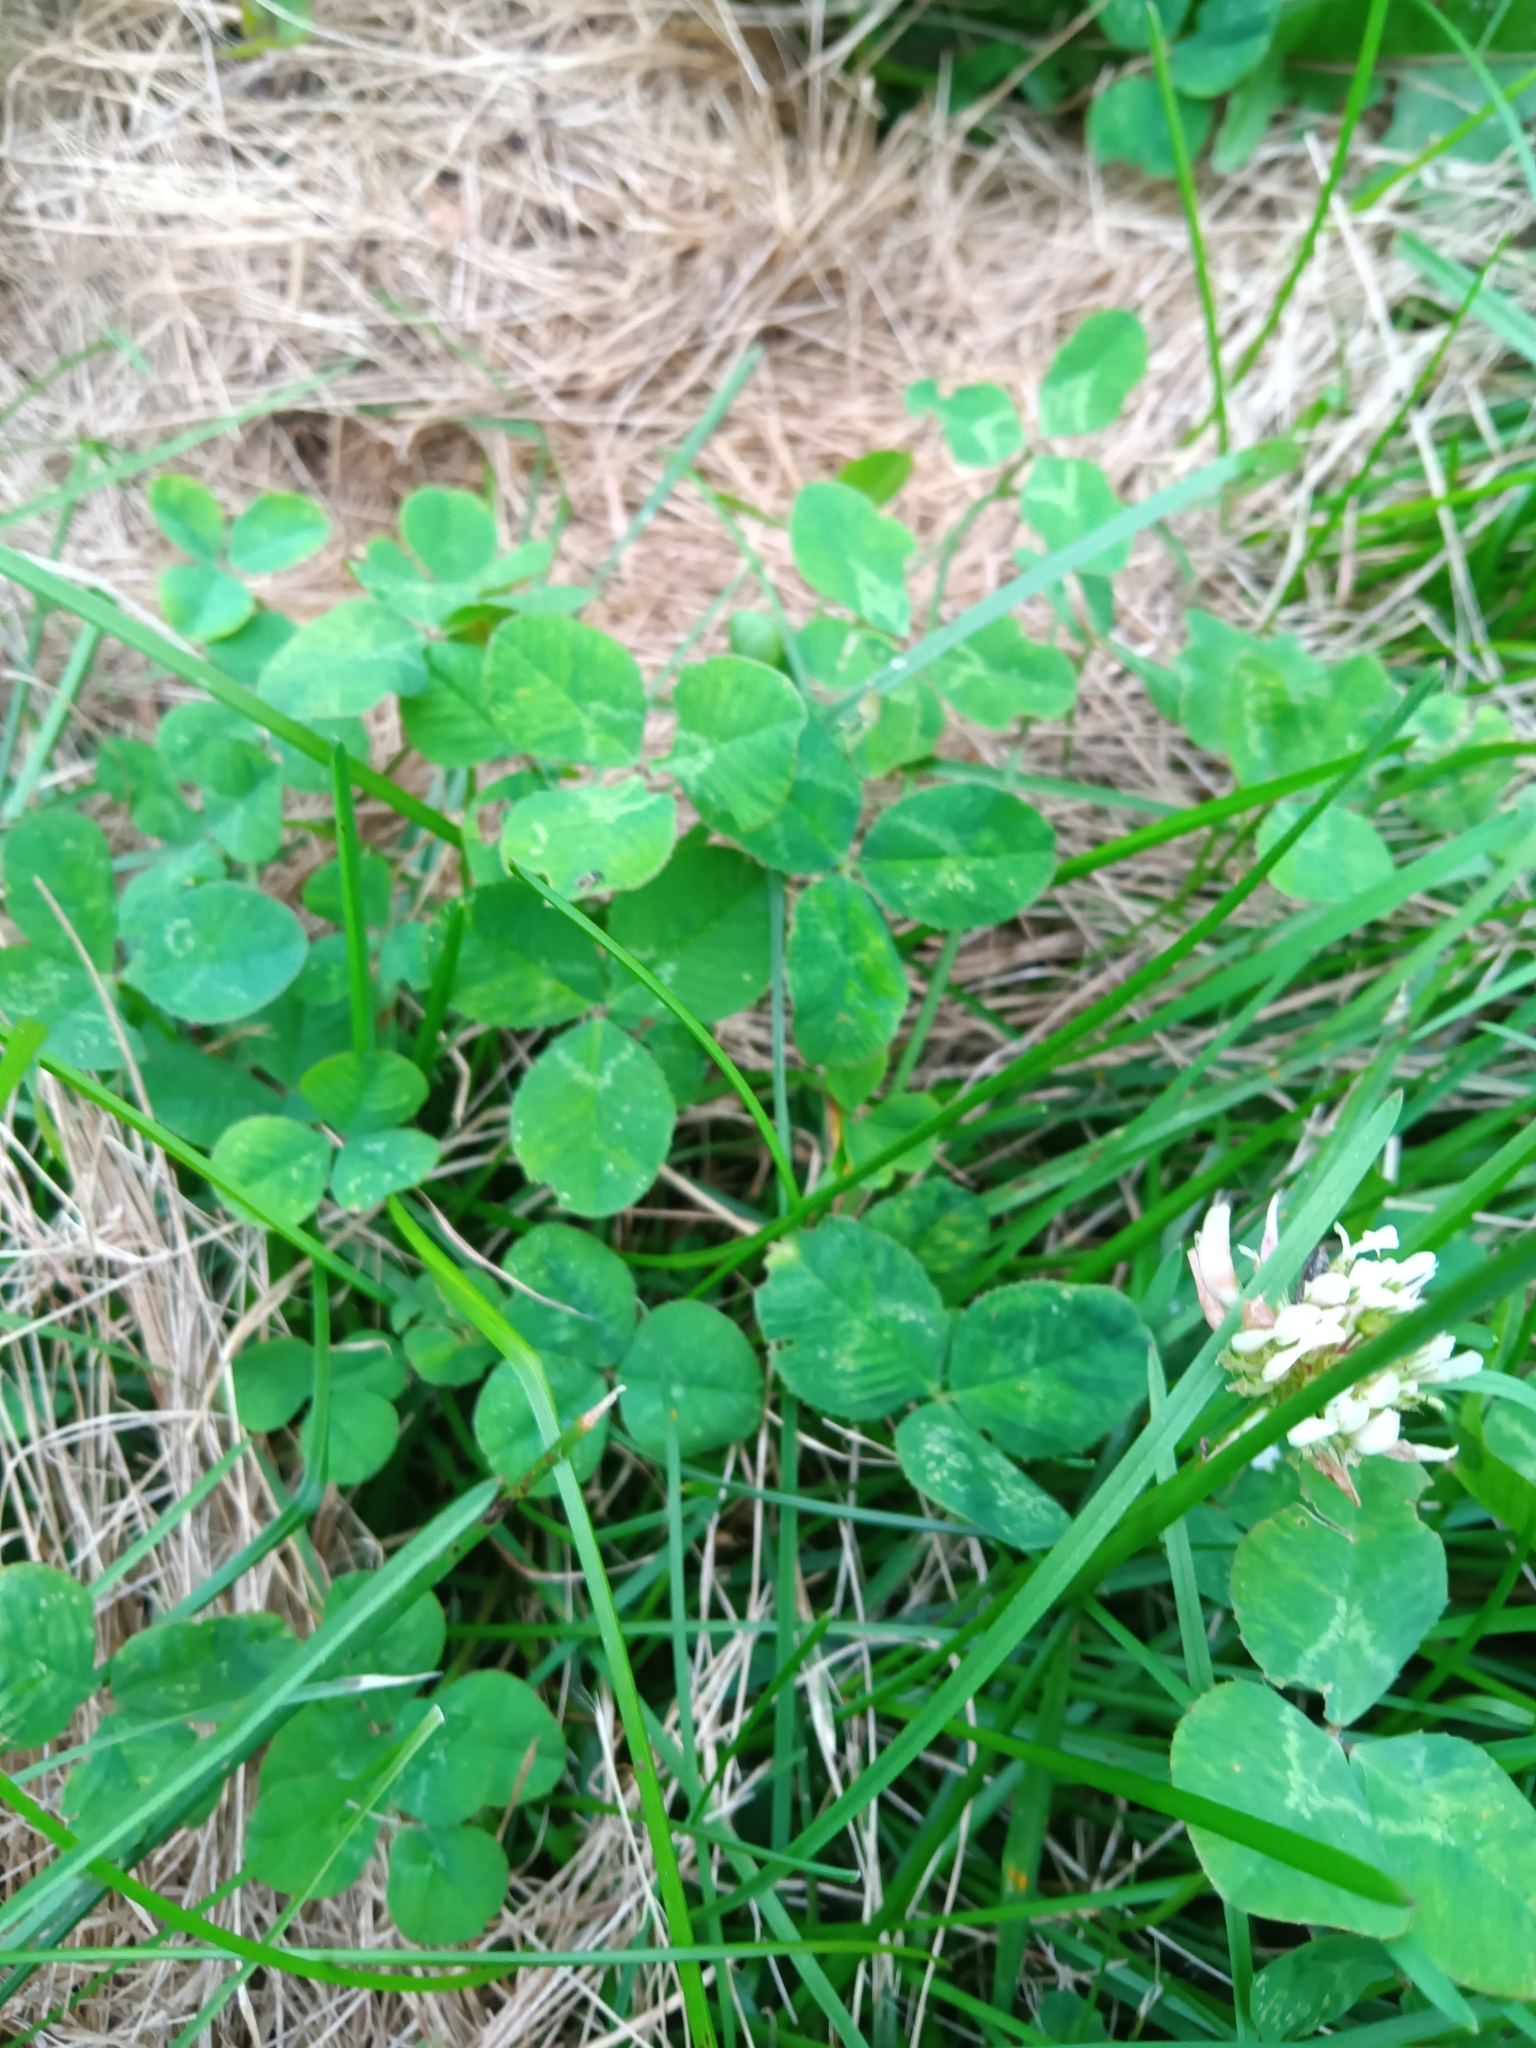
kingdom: Plantae
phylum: Tracheophyta
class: Magnoliopsida
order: Fabales
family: Fabaceae
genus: Trifolium
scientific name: Trifolium repens
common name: White clover
